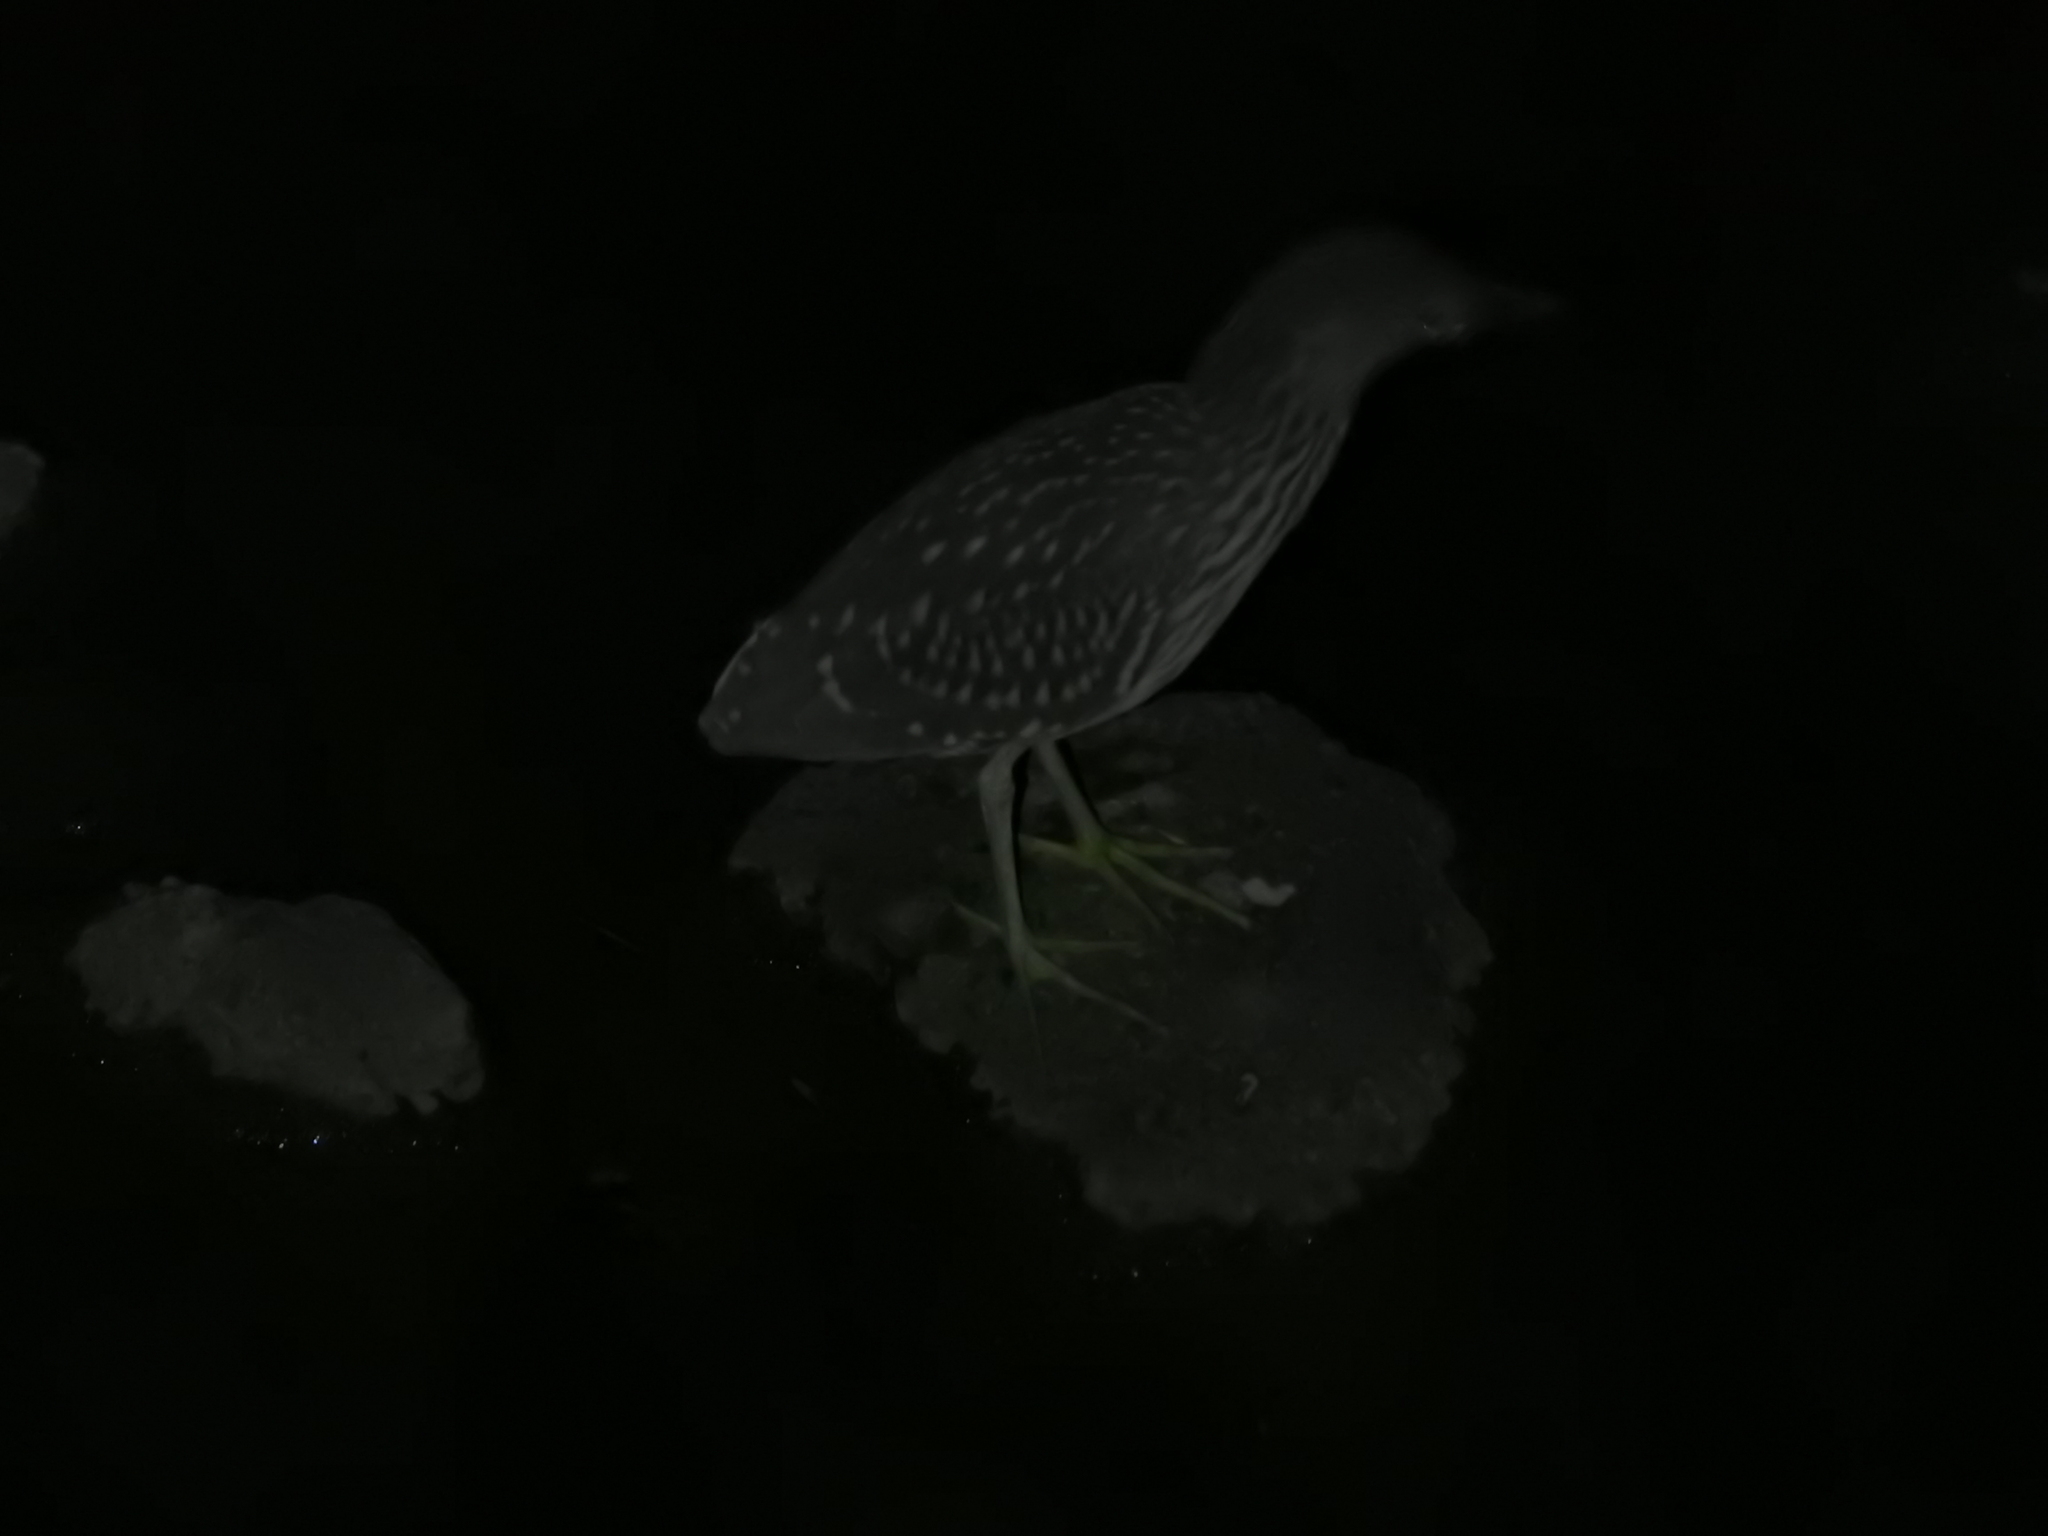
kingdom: Animalia
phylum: Chordata
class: Aves
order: Pelecaniformes
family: Ardeidae
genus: Nycticorax
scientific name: Nycticorax nycticorax
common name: Black-crowned night heron
